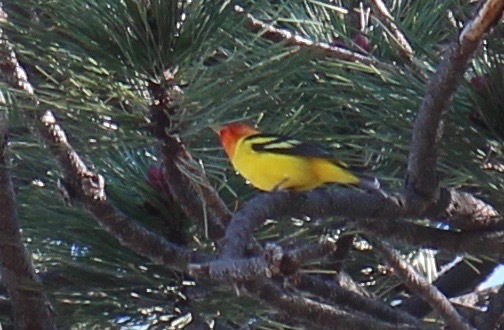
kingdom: Animalia
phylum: Chordata
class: Aves
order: Passeriformes
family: Cardinalidae
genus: Piranga
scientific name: Piranga ludoviciana
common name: Western tanager
